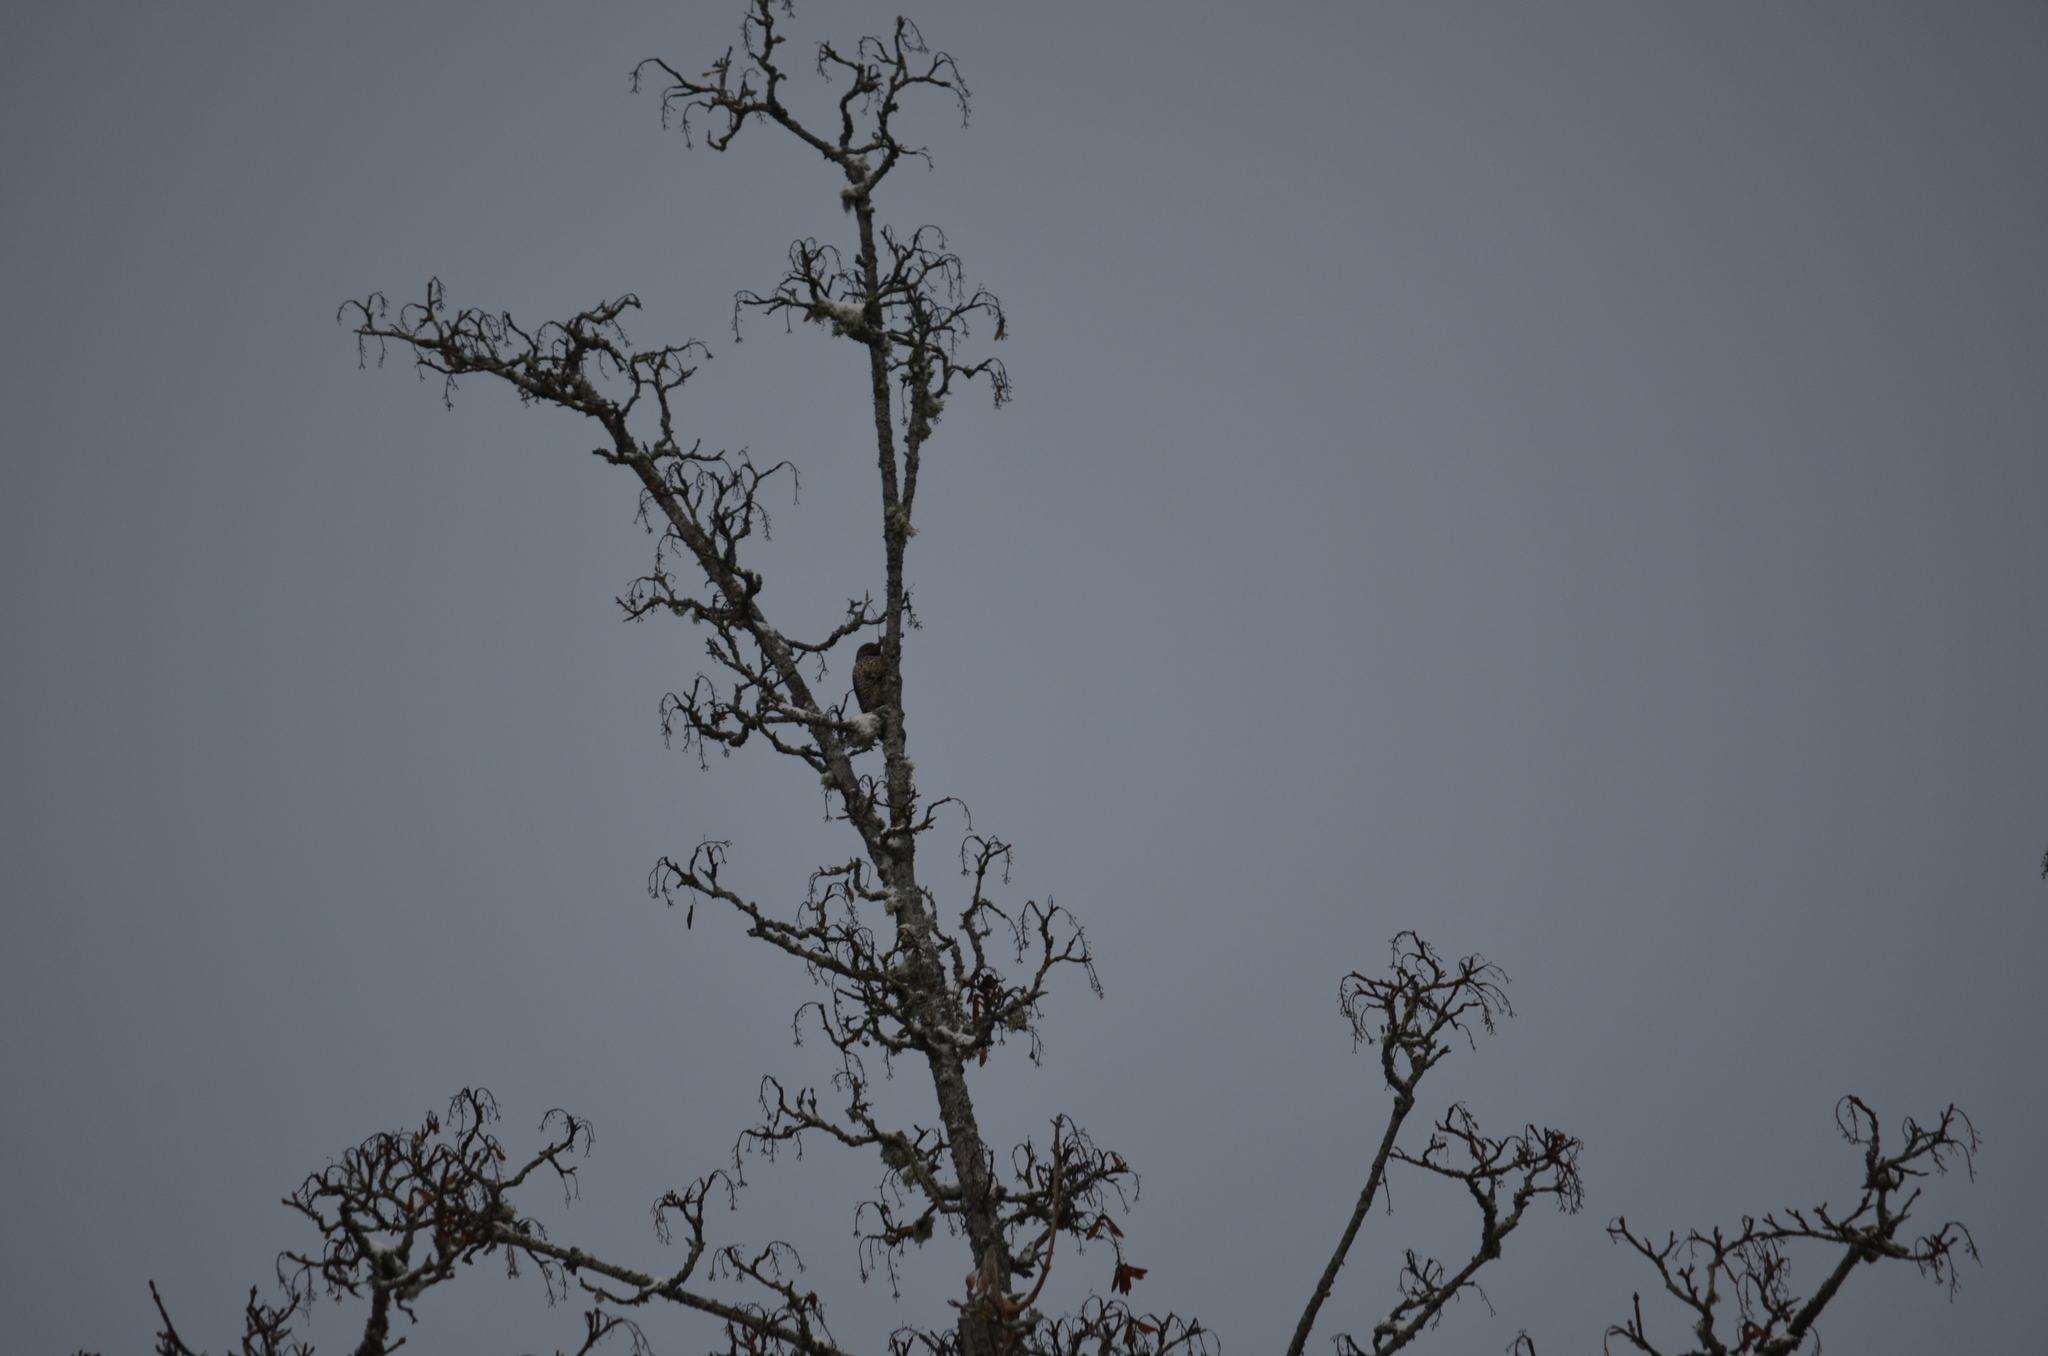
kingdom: Animalia
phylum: Chordata
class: Aves
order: Piciformes
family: Picidae
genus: Colaptes
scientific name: Colaptes auratus
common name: Northern flicker
